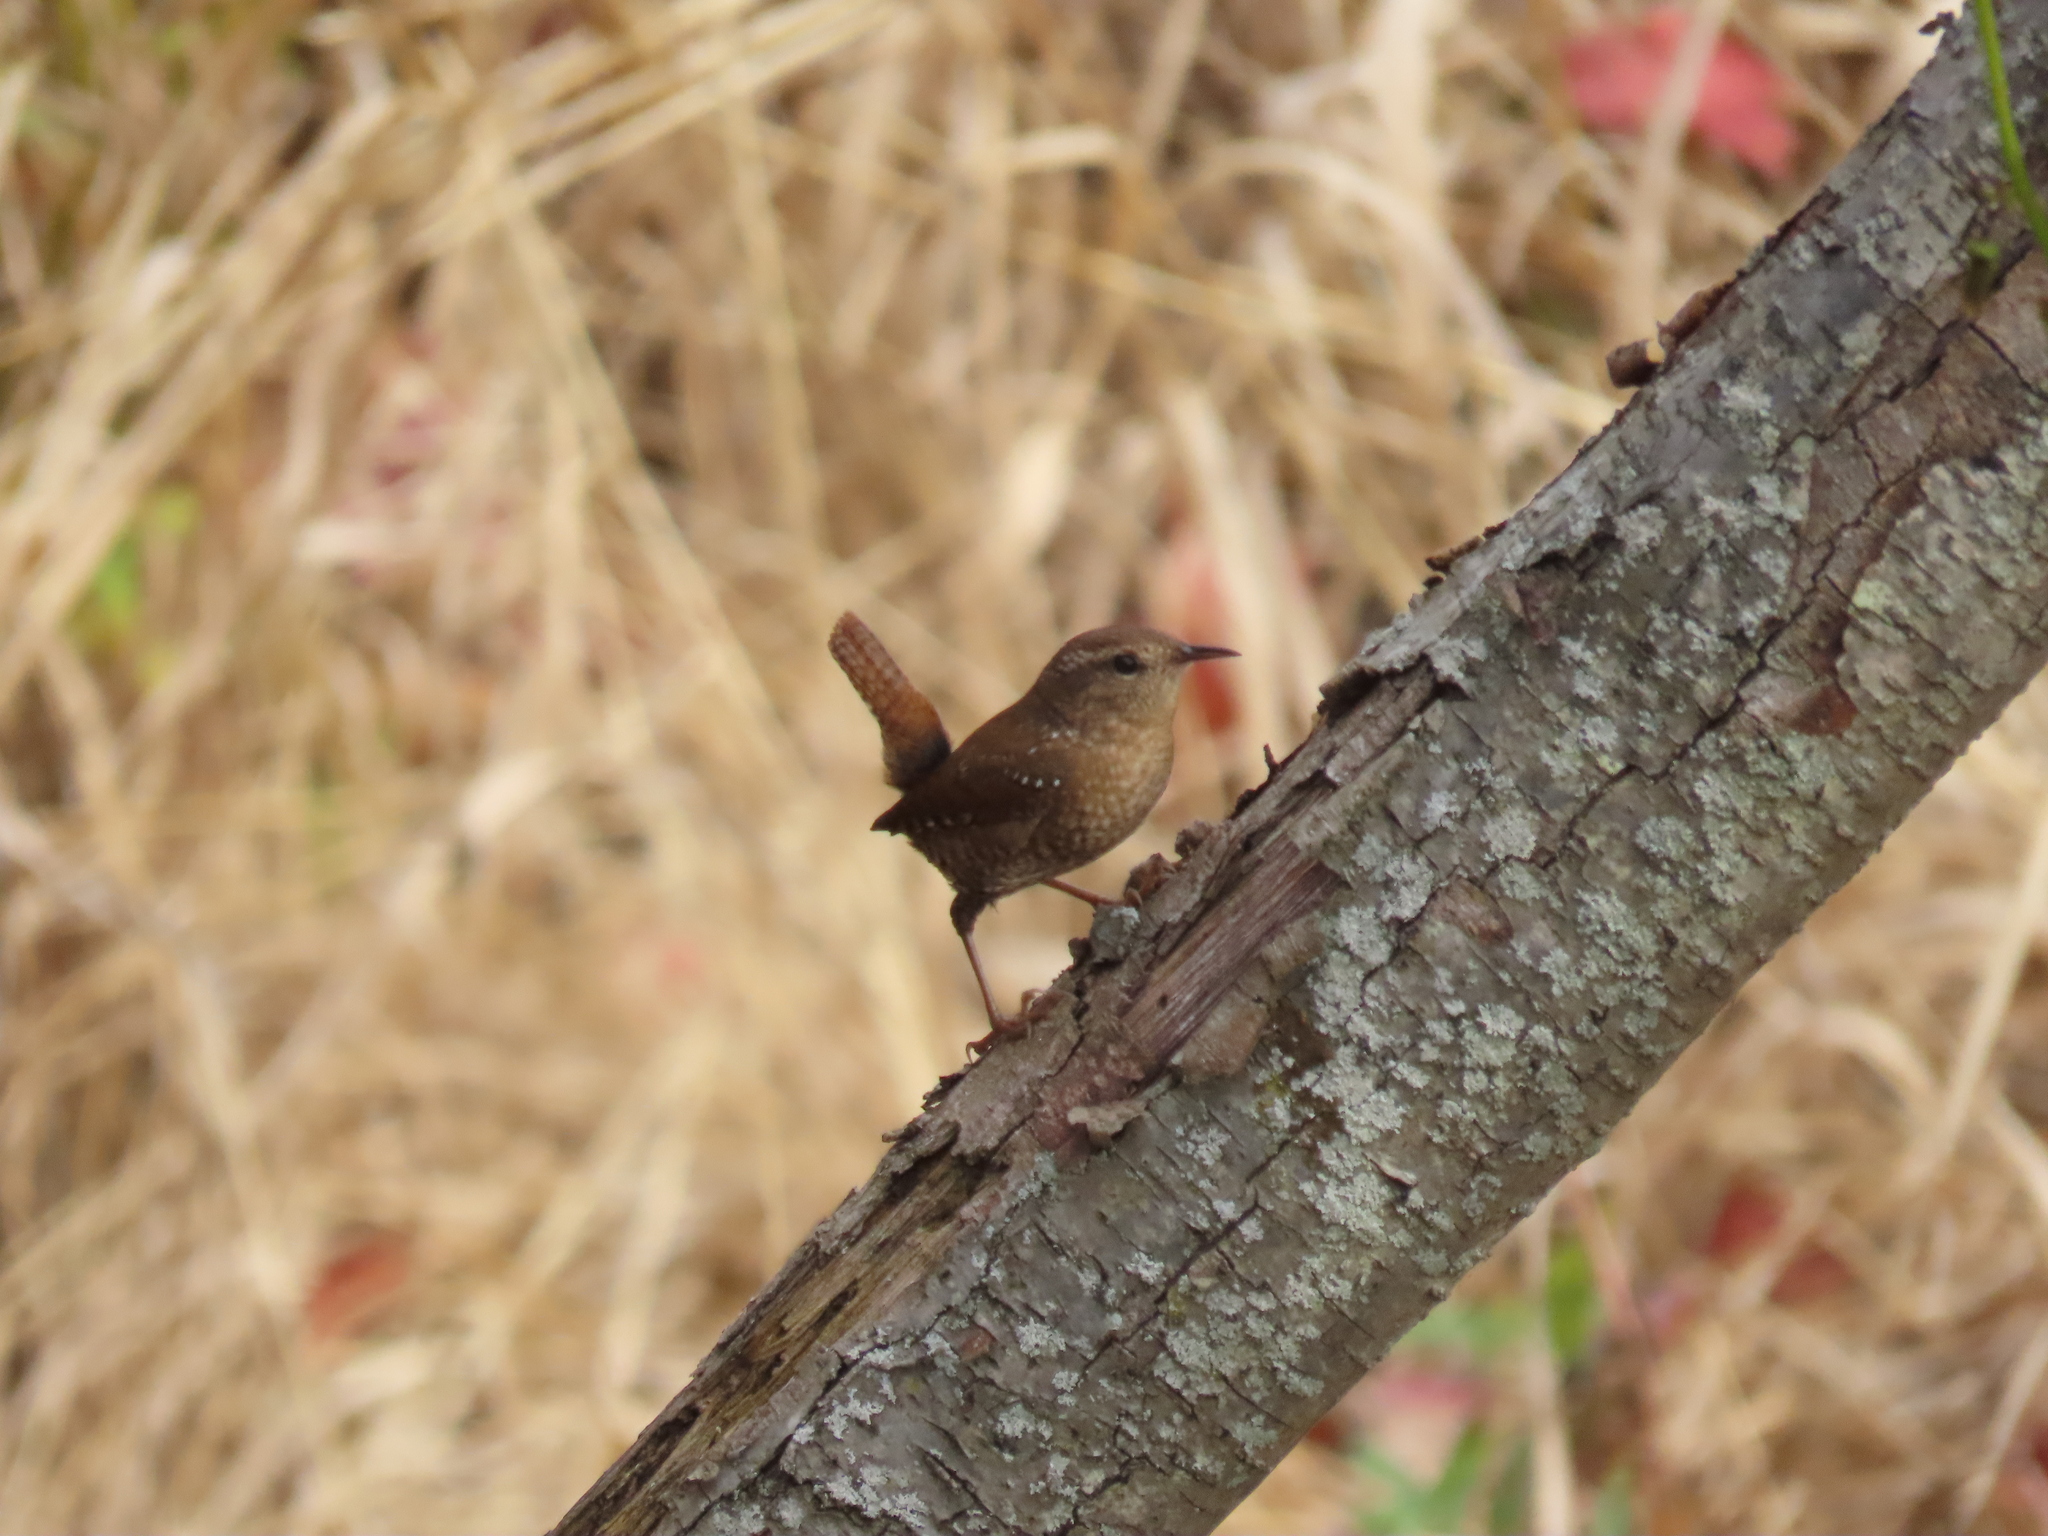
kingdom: Animalia
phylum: Chordata
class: Aves
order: Passeriformes
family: Troglodytidae
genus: Troglodytes
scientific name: Troglodytes hiemalis
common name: Winter wren
